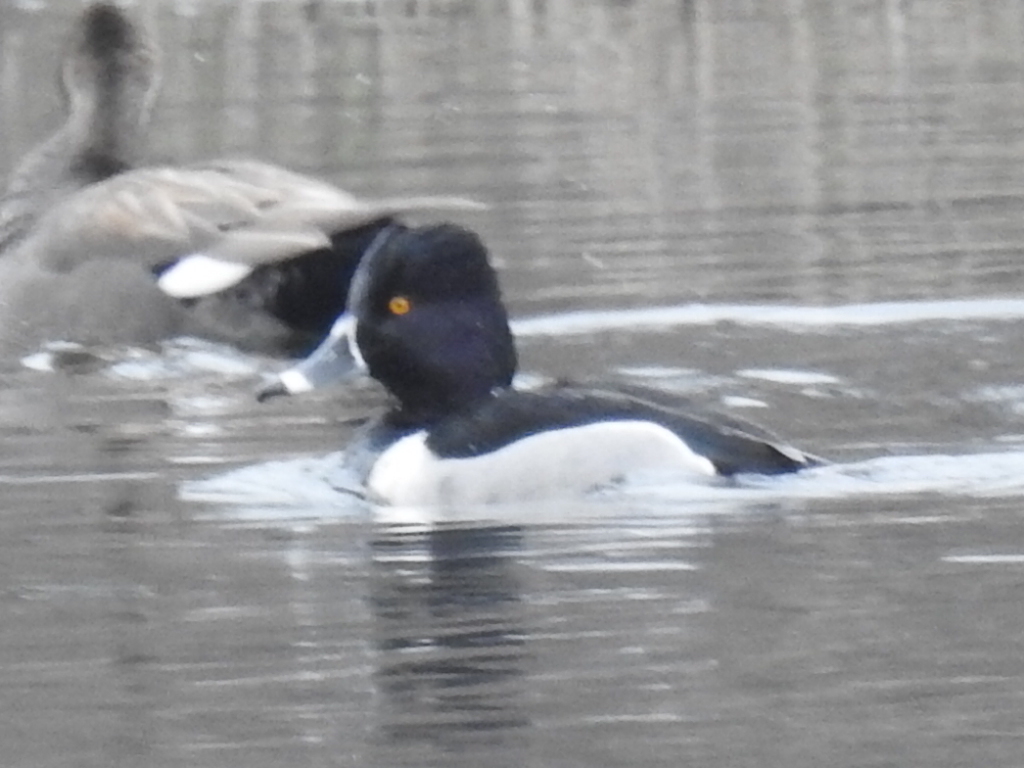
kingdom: Animalia
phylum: Chordata
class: Aves
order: Anseriformes
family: Anatidae
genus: Aythya
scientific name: Aythya collaris
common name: Ring-necked duck
